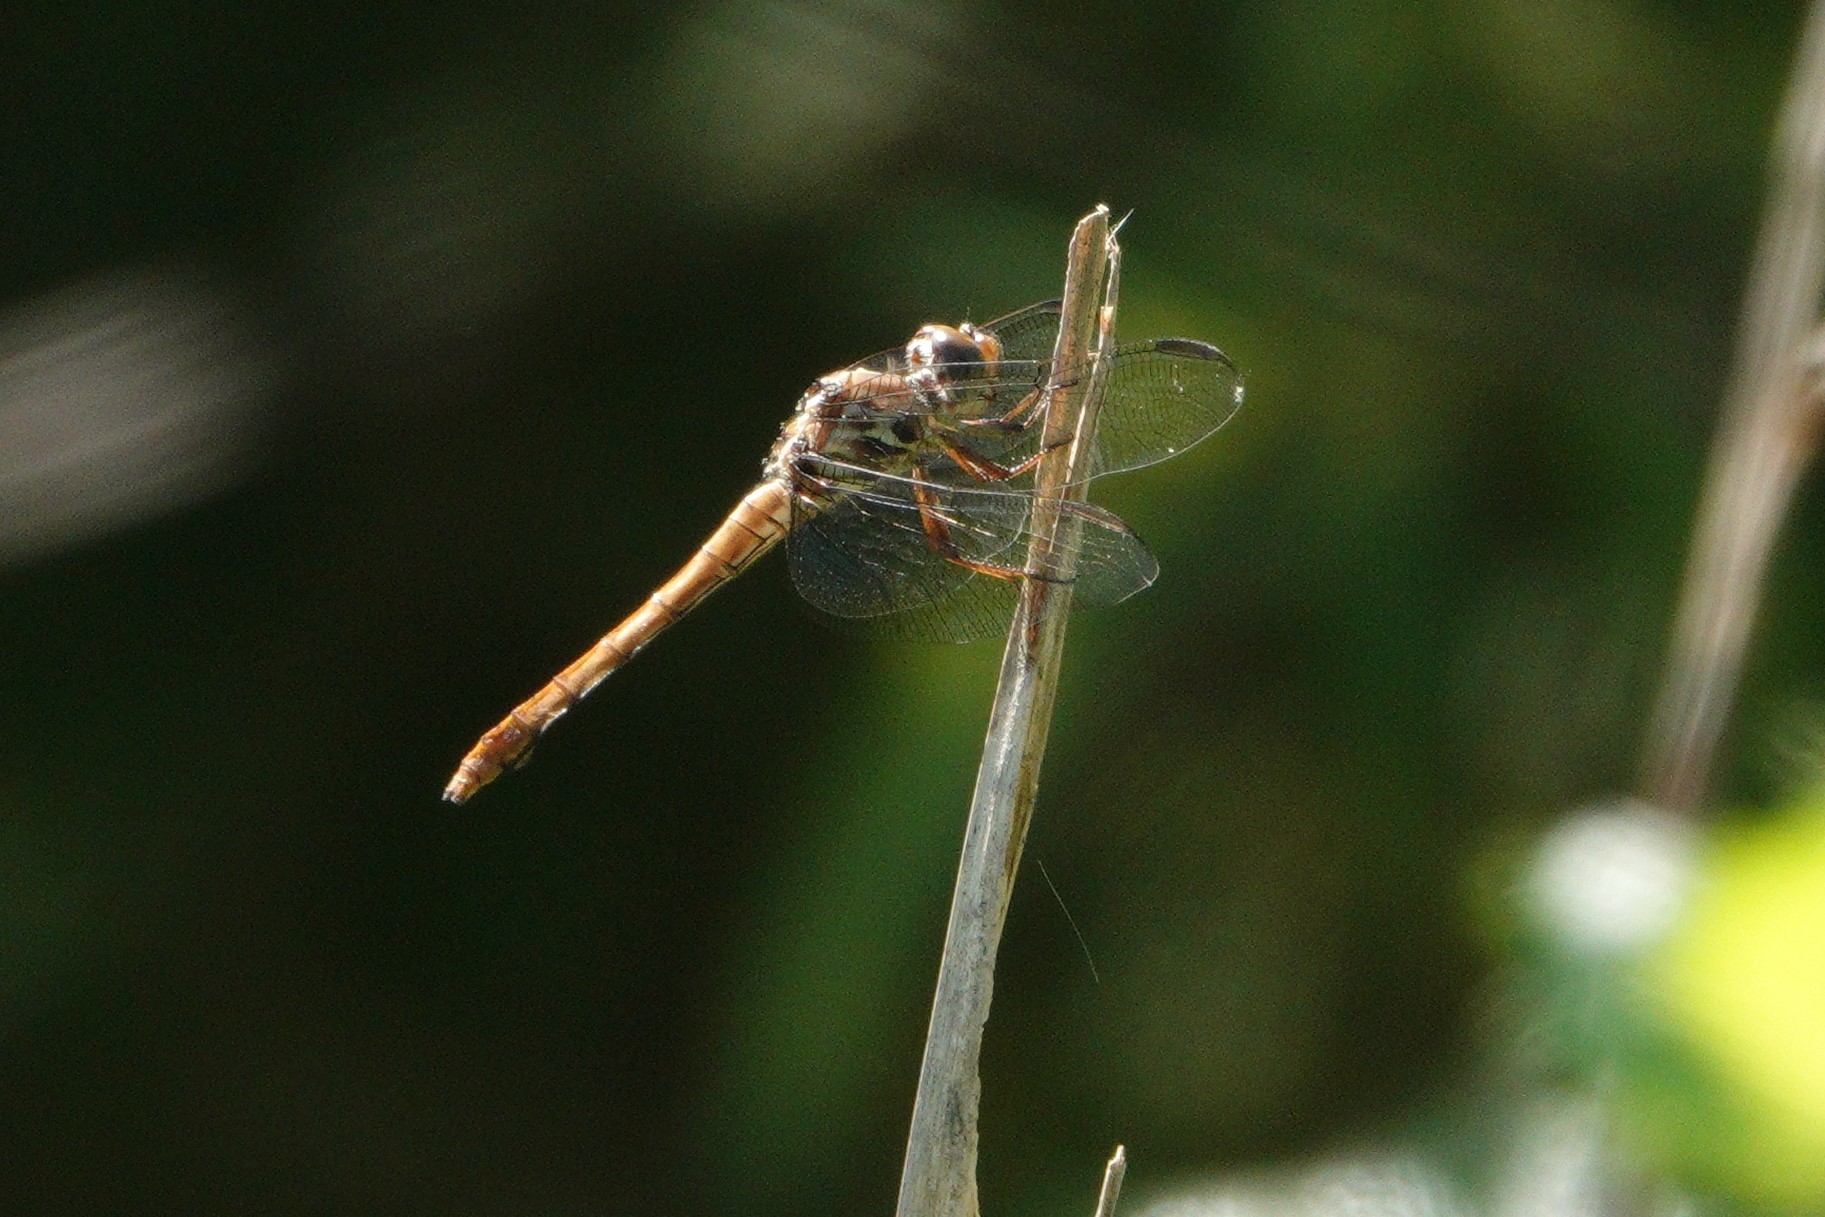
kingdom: Animalia
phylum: Arthropoda
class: Insecta
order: Odonata
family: Libellulidae
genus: Orthemis
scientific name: Orthemis ferruginea
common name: Roseate skimmer
